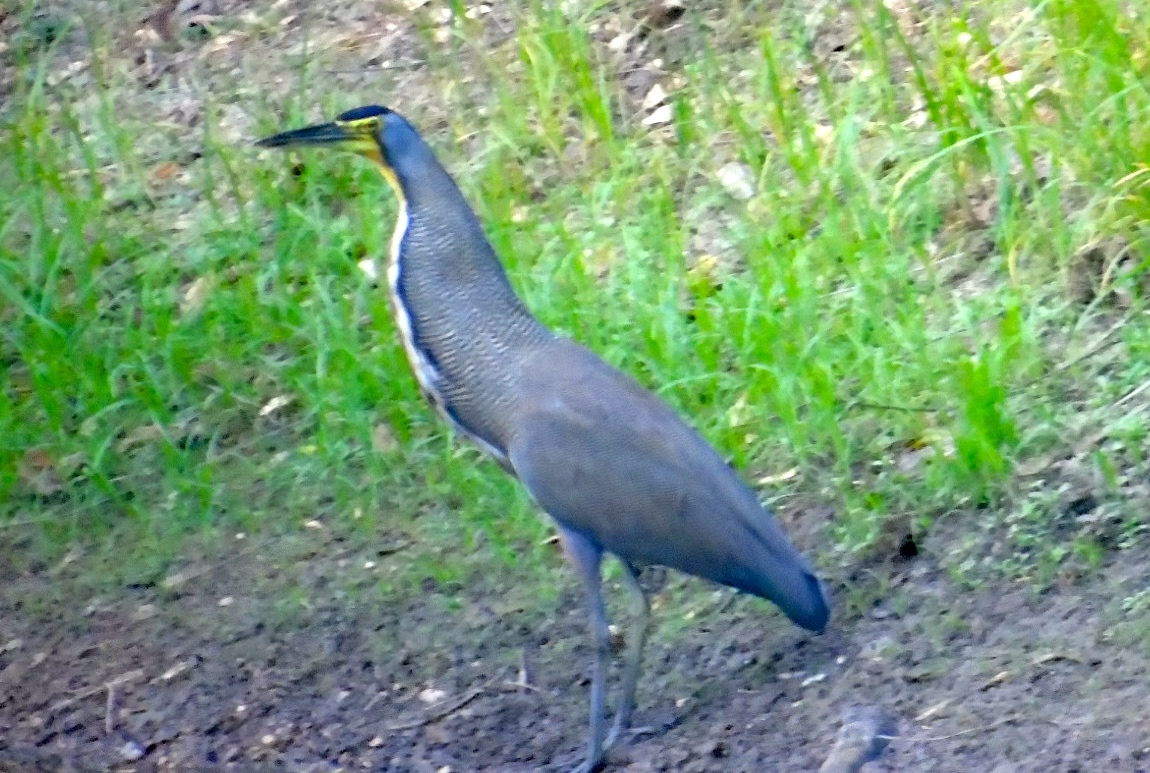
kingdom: Animalia
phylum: Chordata
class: Aves
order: Pelecaniformes
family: Ardeidae
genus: Tigrisoma
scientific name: Tigrisoma mexicanum
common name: Bare-throated tiger-heron
